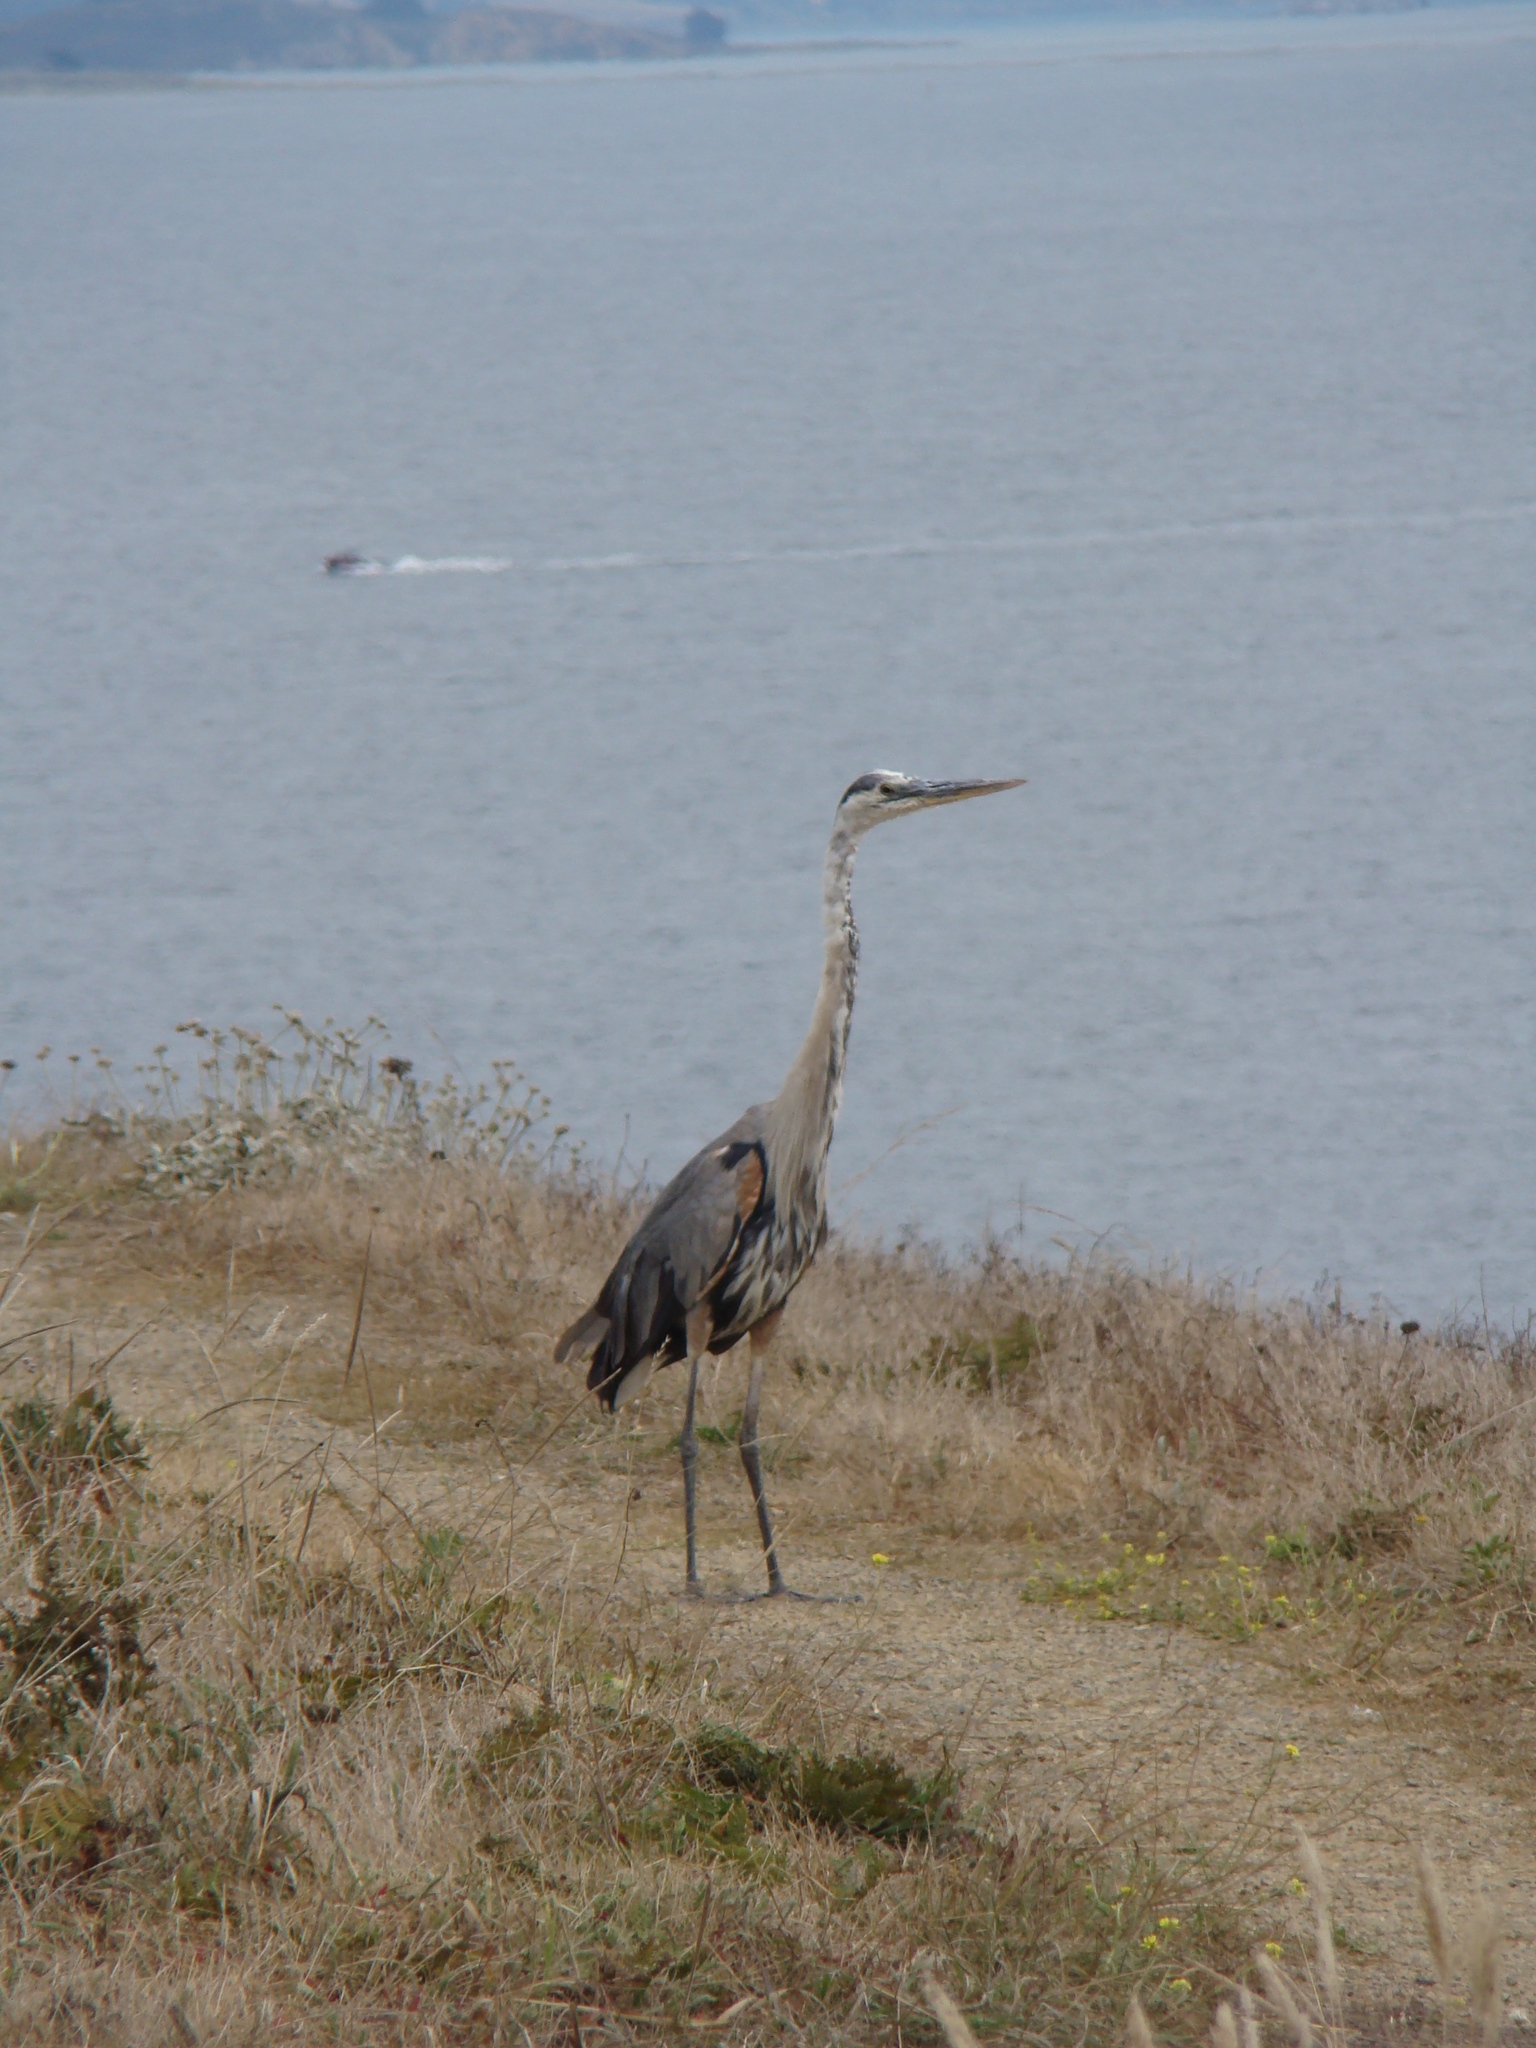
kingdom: Animalia
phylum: Chordata
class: Aves
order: Pelecaniformes
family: Ardeidae
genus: Ardea
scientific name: Ardea herodias
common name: Great blue heron
